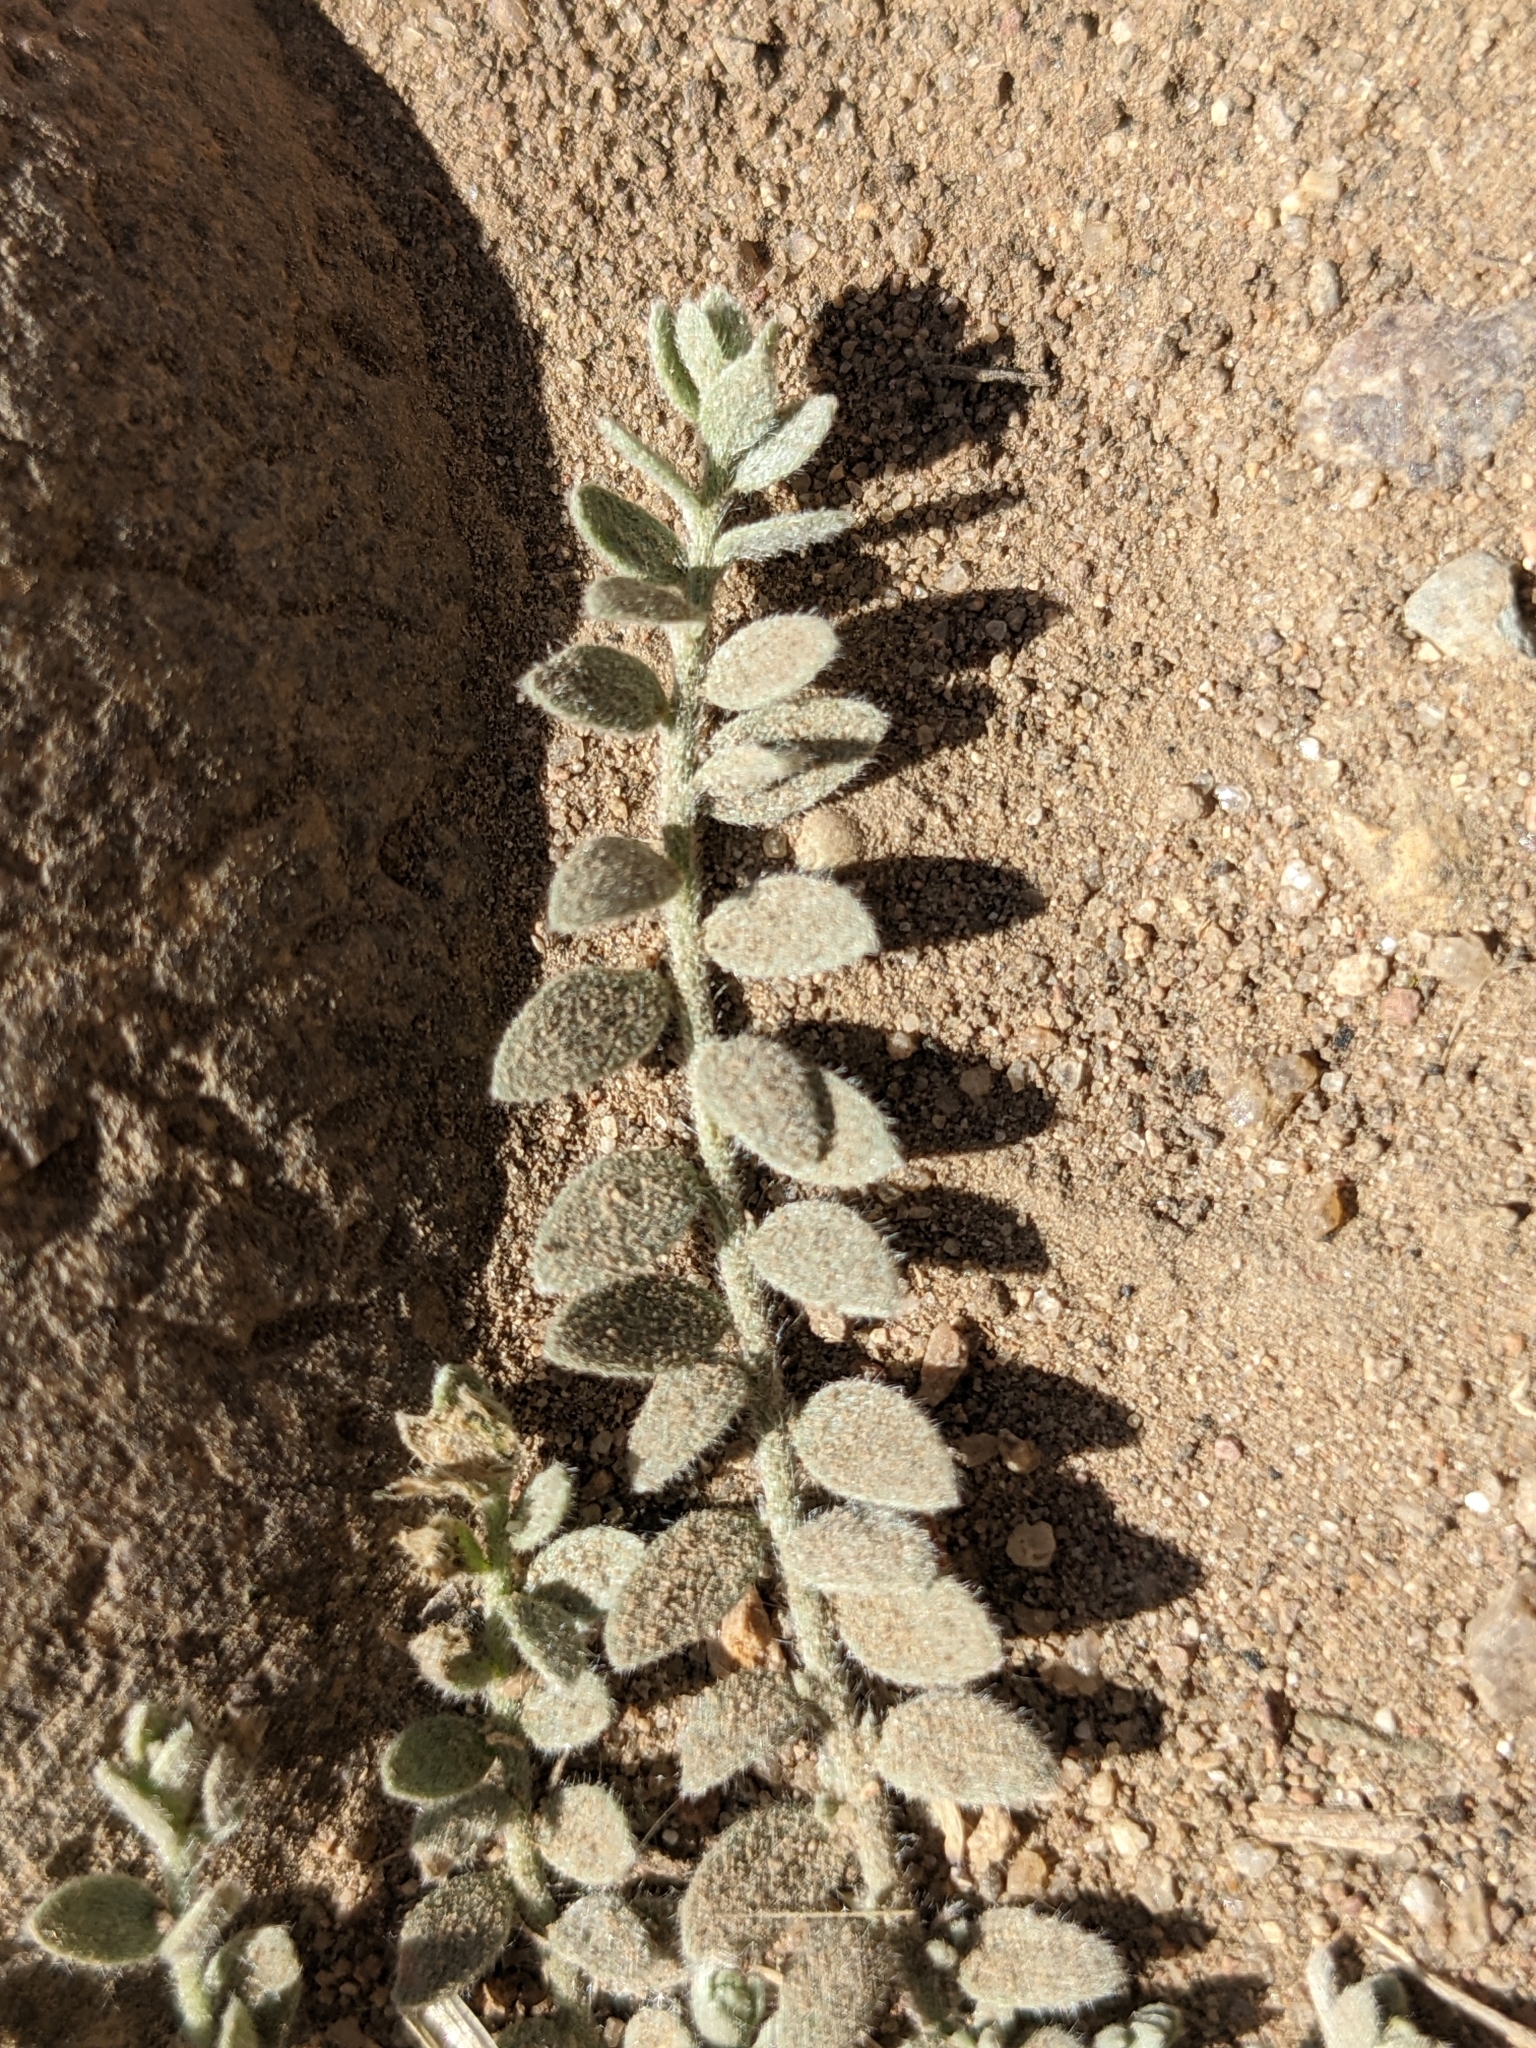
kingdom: Plantae
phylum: Tracheophyta
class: Magnoliopsida
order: Solanales
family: Convolvulaceae
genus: Cressa
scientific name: Cressa truxillensis
